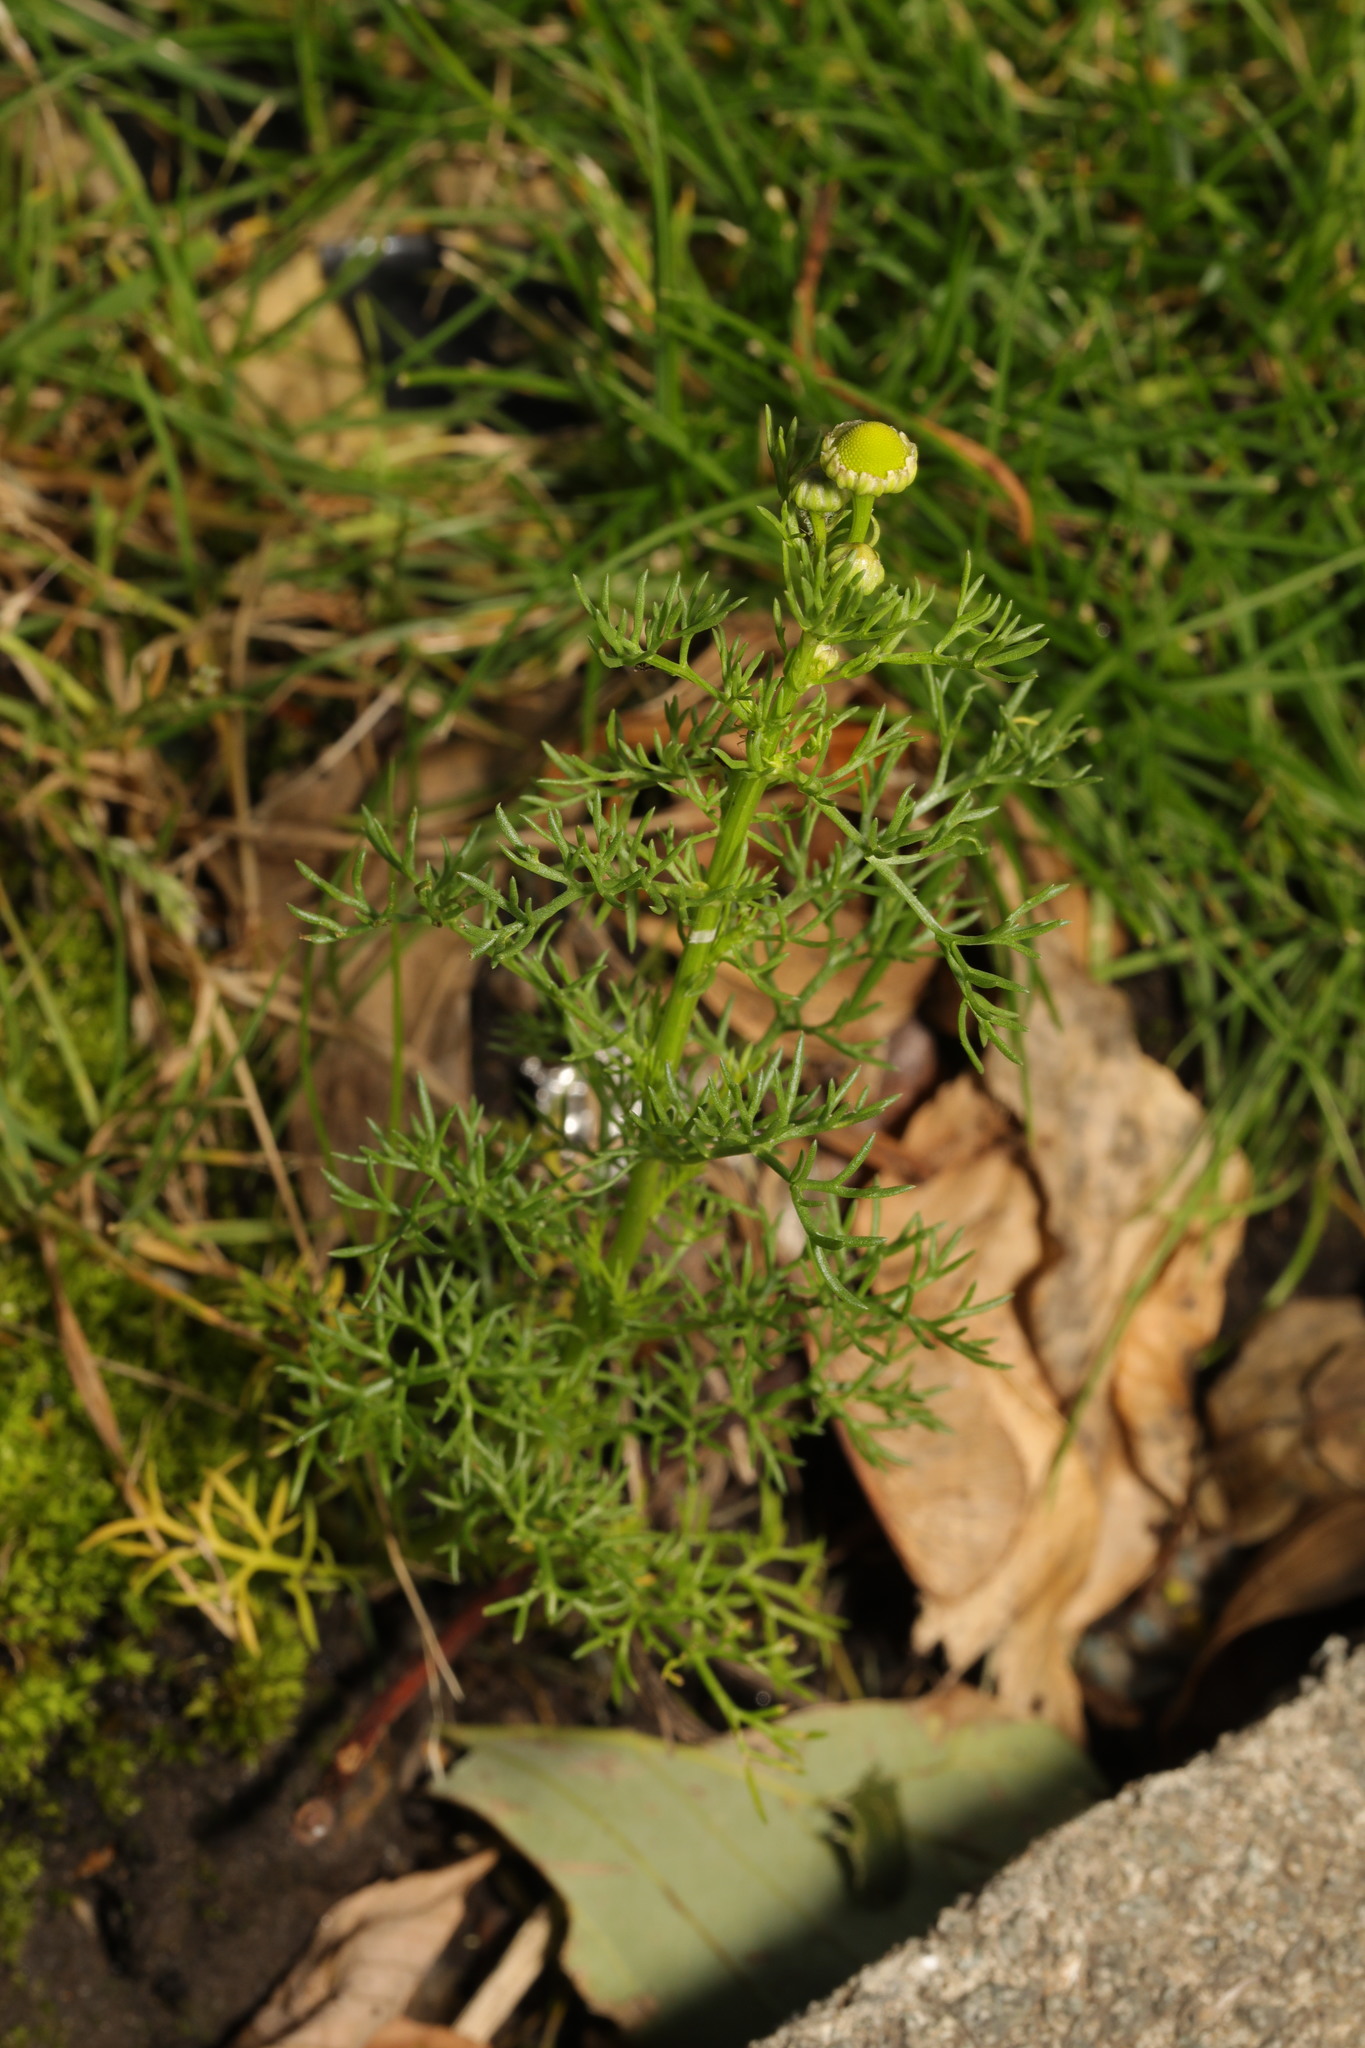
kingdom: Plantae
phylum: Tracheophyta
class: Magnoliopsida
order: Asterales
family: Asteraceae
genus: Matricaria
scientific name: Matricaria chamomilla
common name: Scented mayweed
